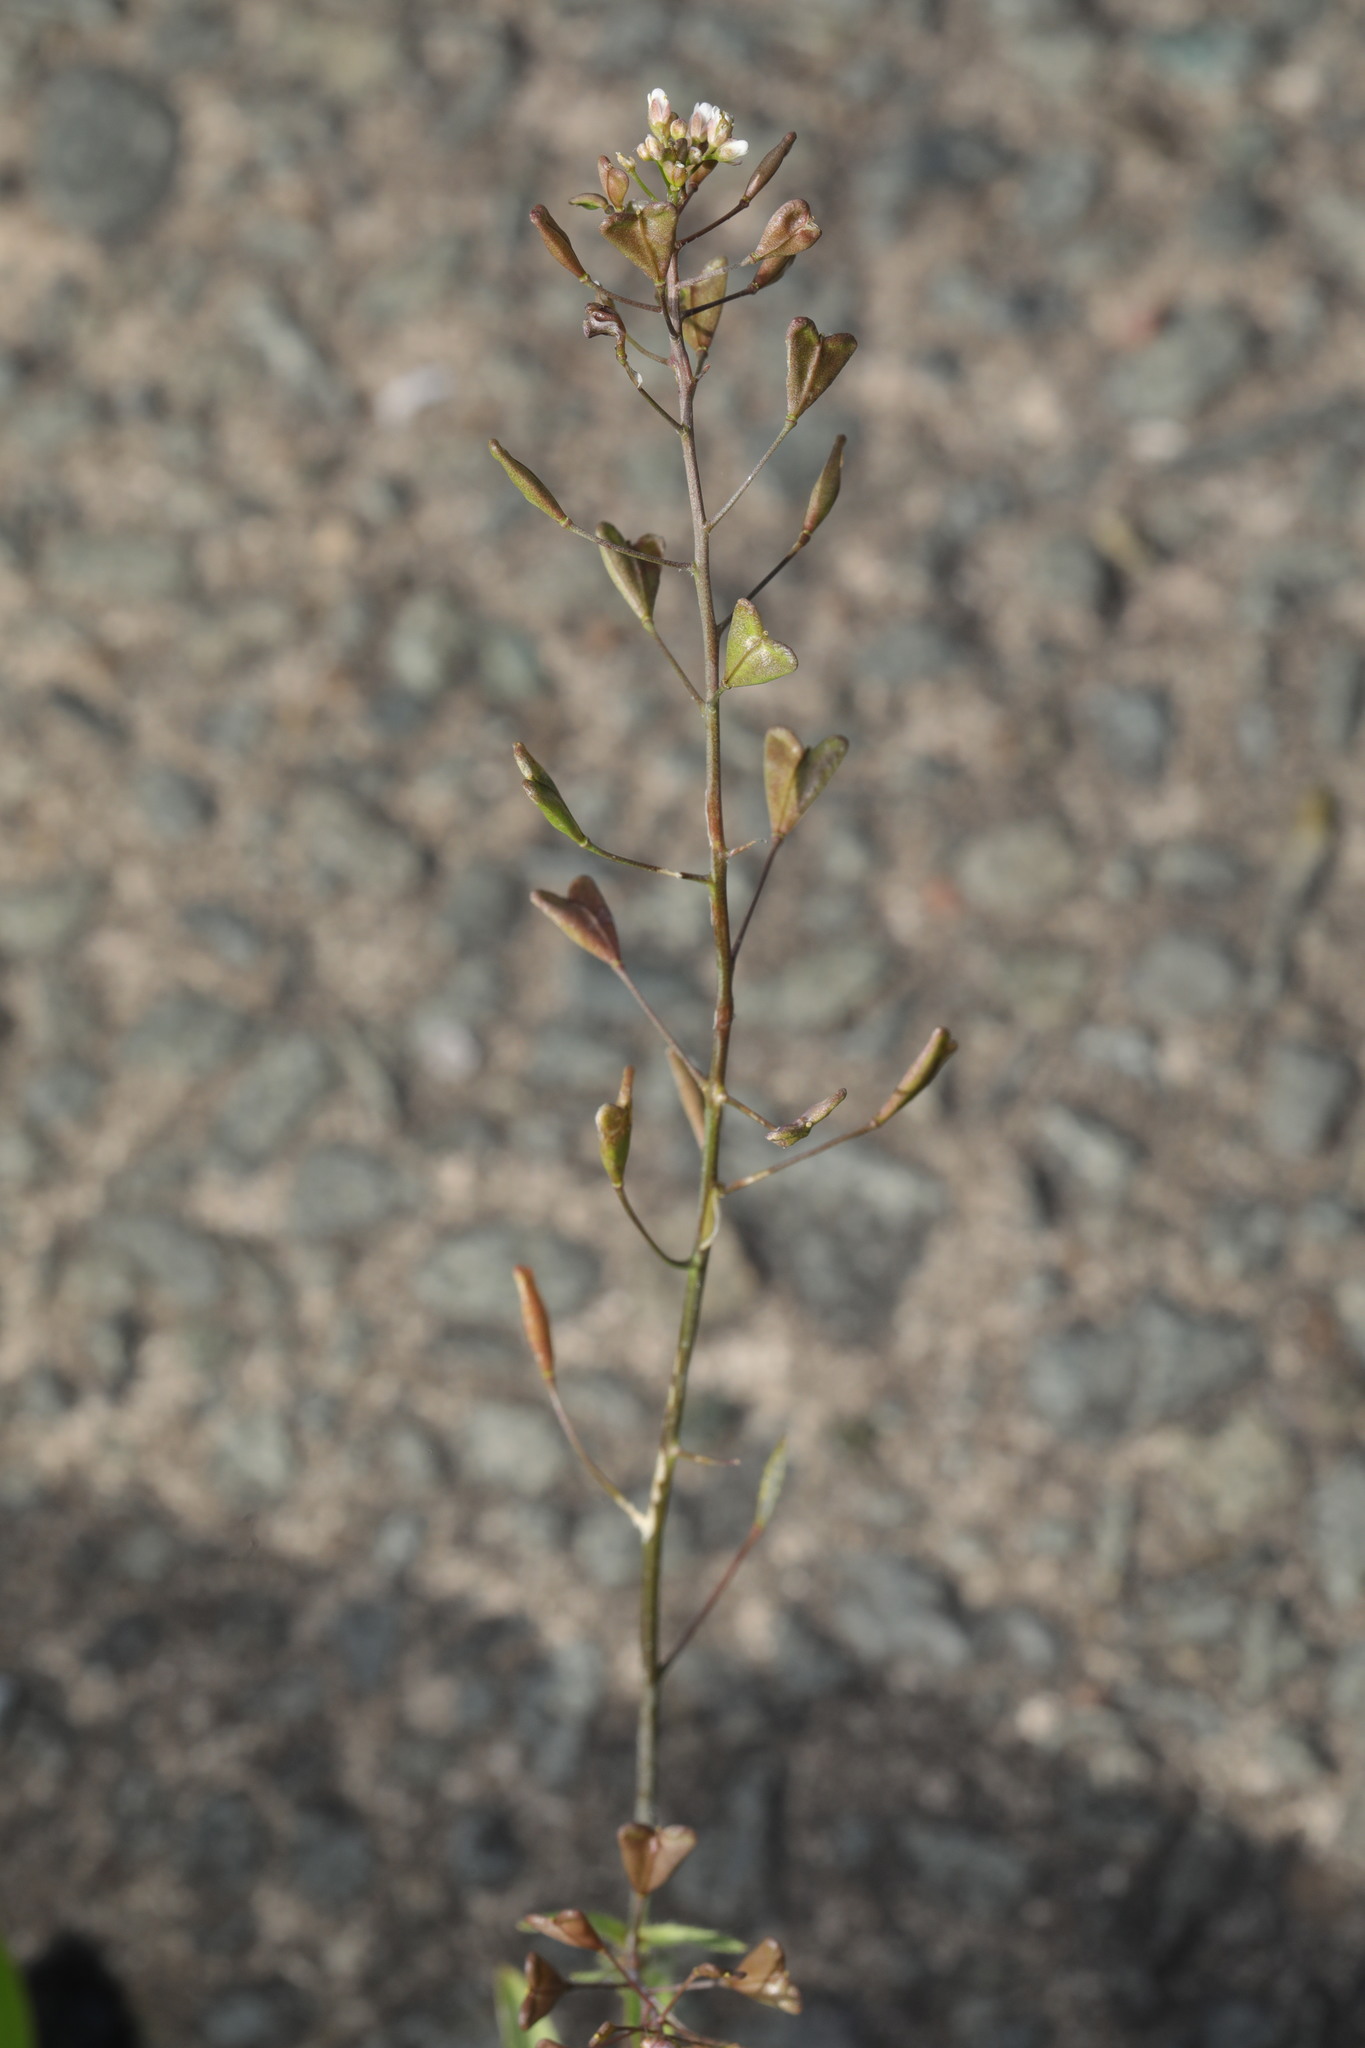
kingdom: Plantae
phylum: Tracheophyta
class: Magnoliopsida
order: Brassicales
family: Brassicaceae
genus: Capsella
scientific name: Capsella bursa-pastoris
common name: Shepherd's purse
